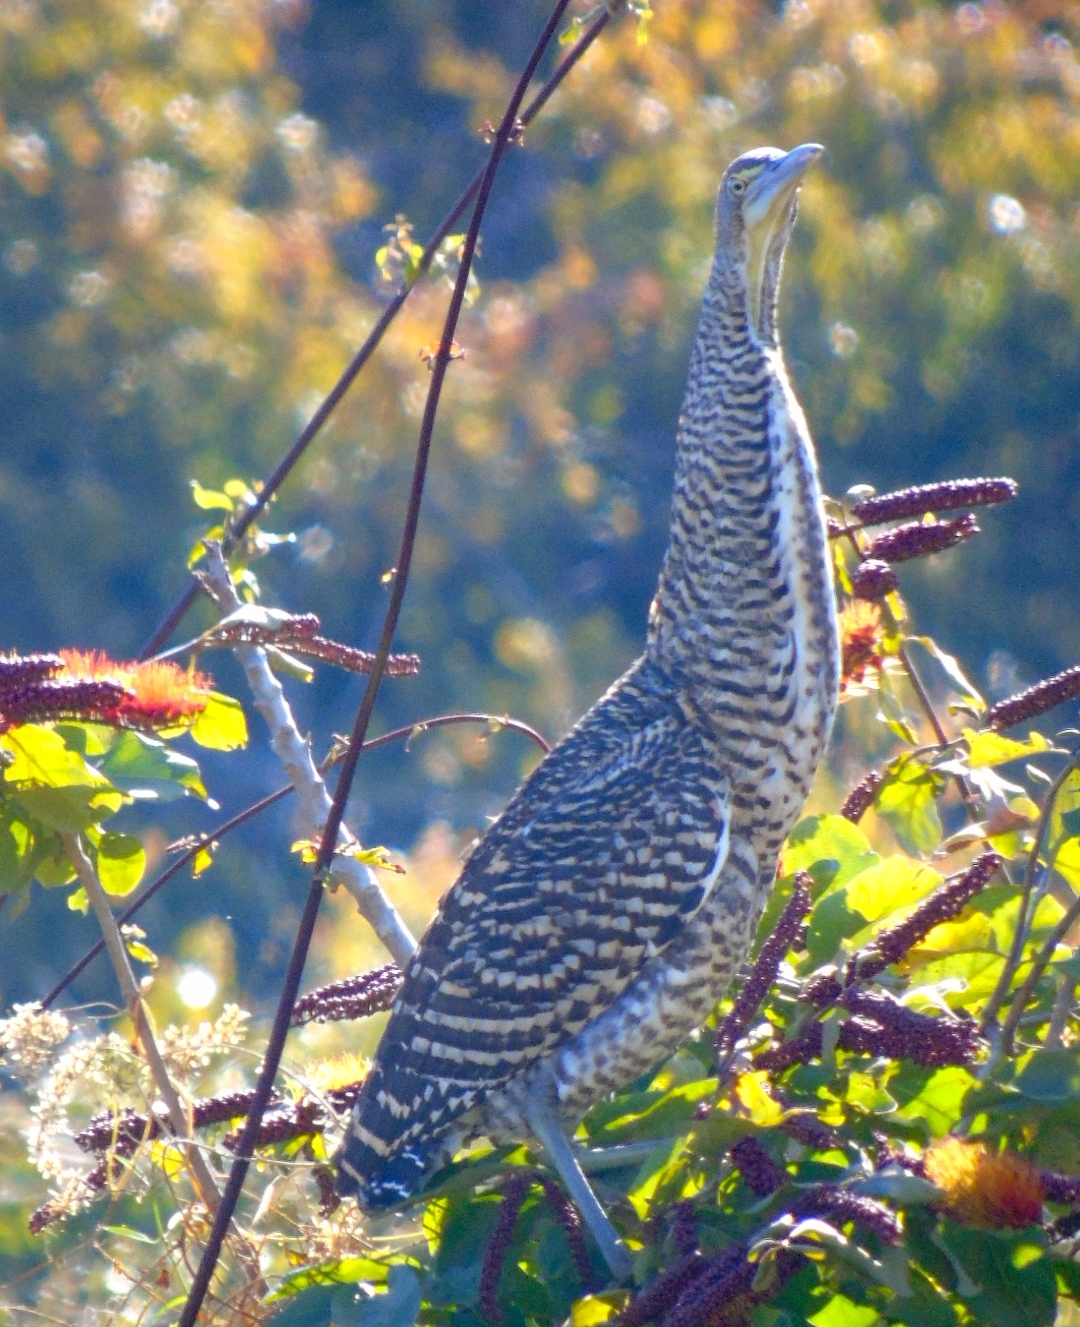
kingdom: Animalia
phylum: Chordata
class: Aves
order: Pelecaniformes
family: Ardeidae
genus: Tigrisoma
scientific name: Tigrisoma mexicanum
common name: Bare-throated tiger-heron
